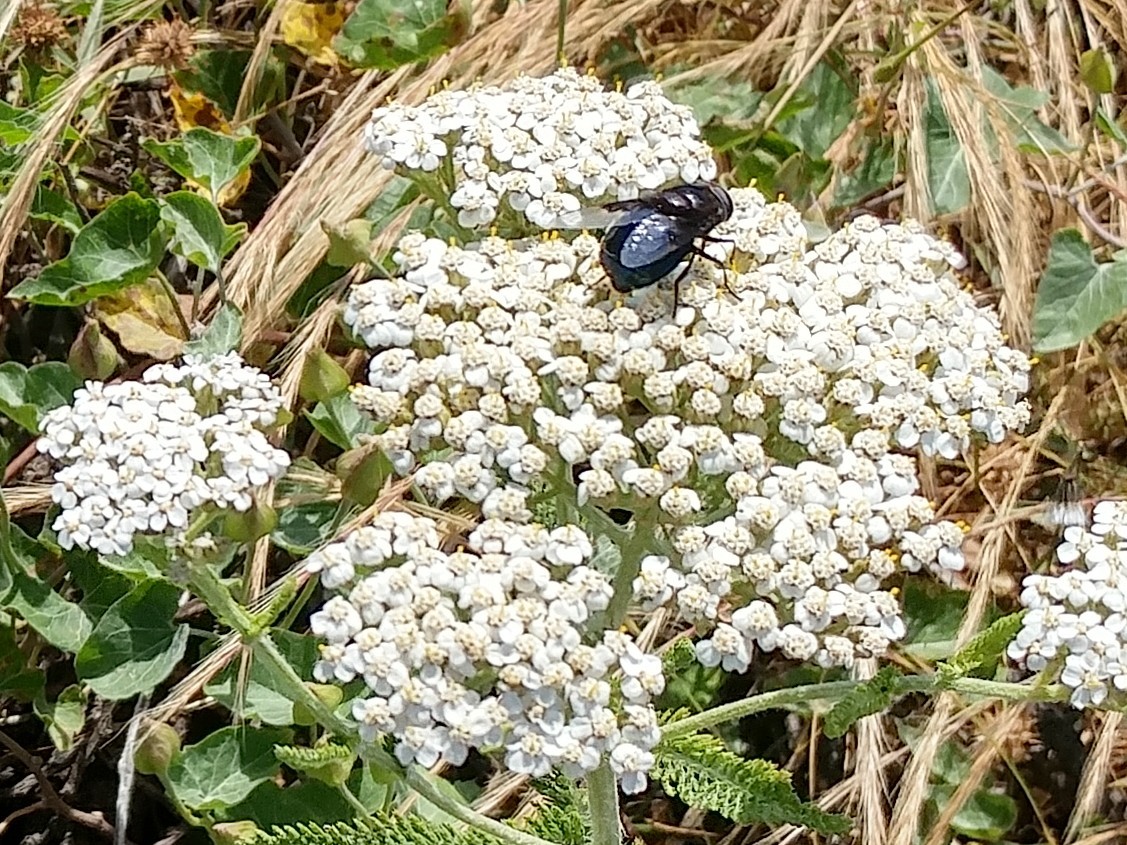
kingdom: Animalia
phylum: Arthropoda
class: Insecta
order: Diptera
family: Syrphidae
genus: Copestylum
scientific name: Copestylum
